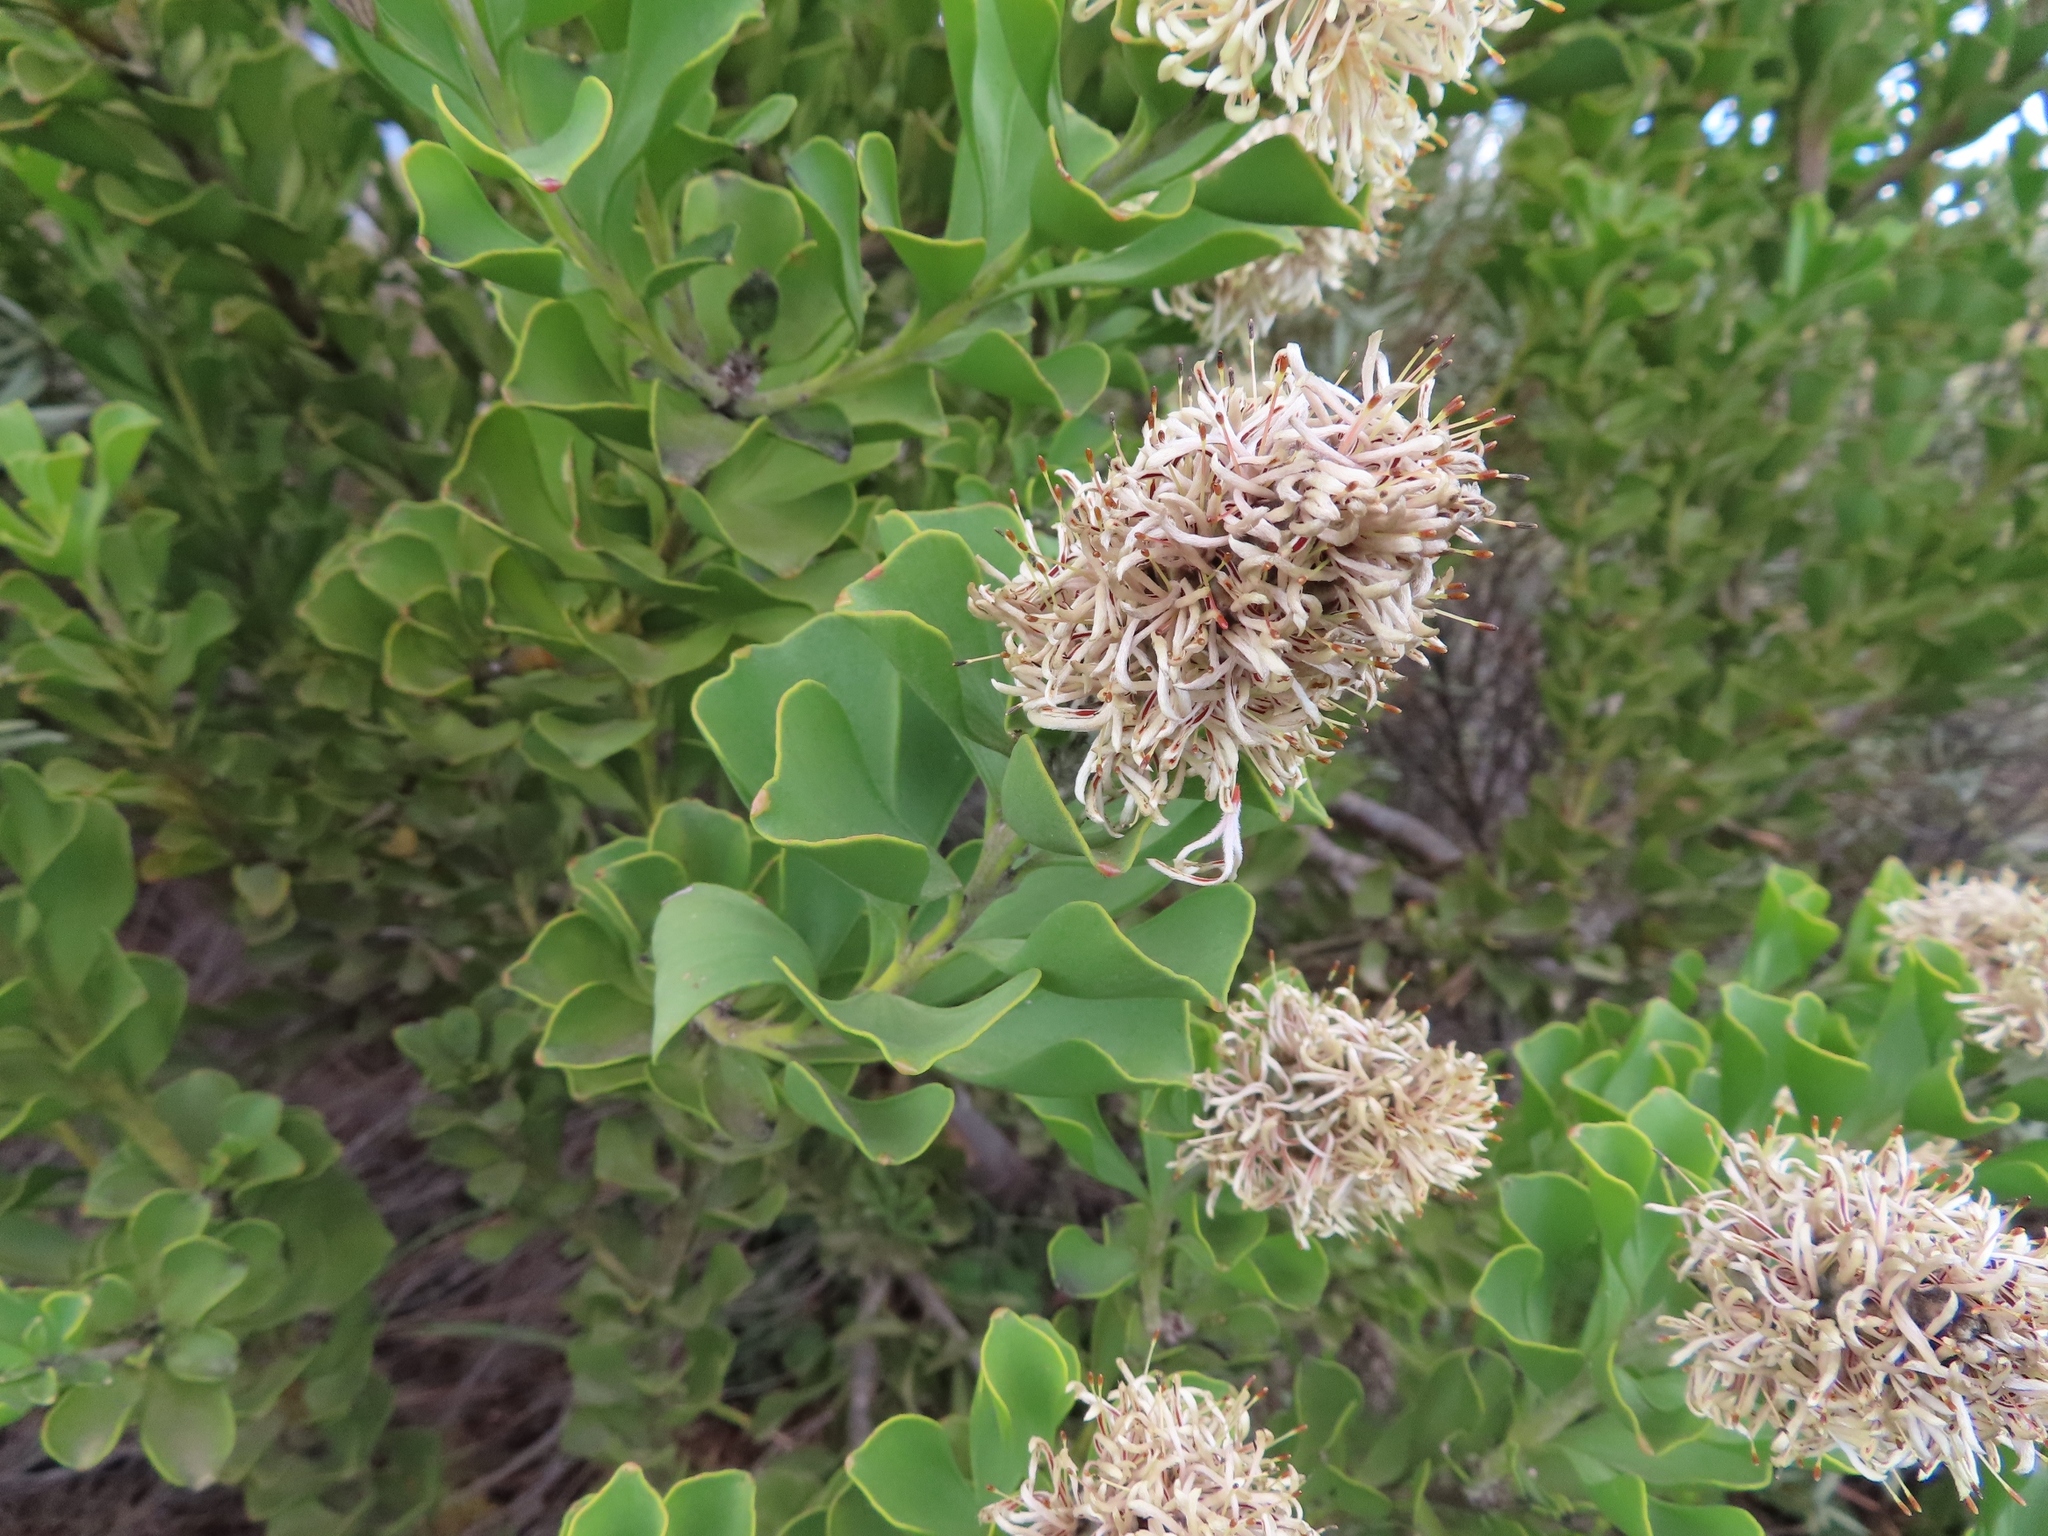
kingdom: Plantae
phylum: Tracheophyta
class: Magnoliopsida
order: Proteales
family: Proteaceae
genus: Paranomus
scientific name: Paranomus sceptrum-gustavianus
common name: King gustav's sceptre
